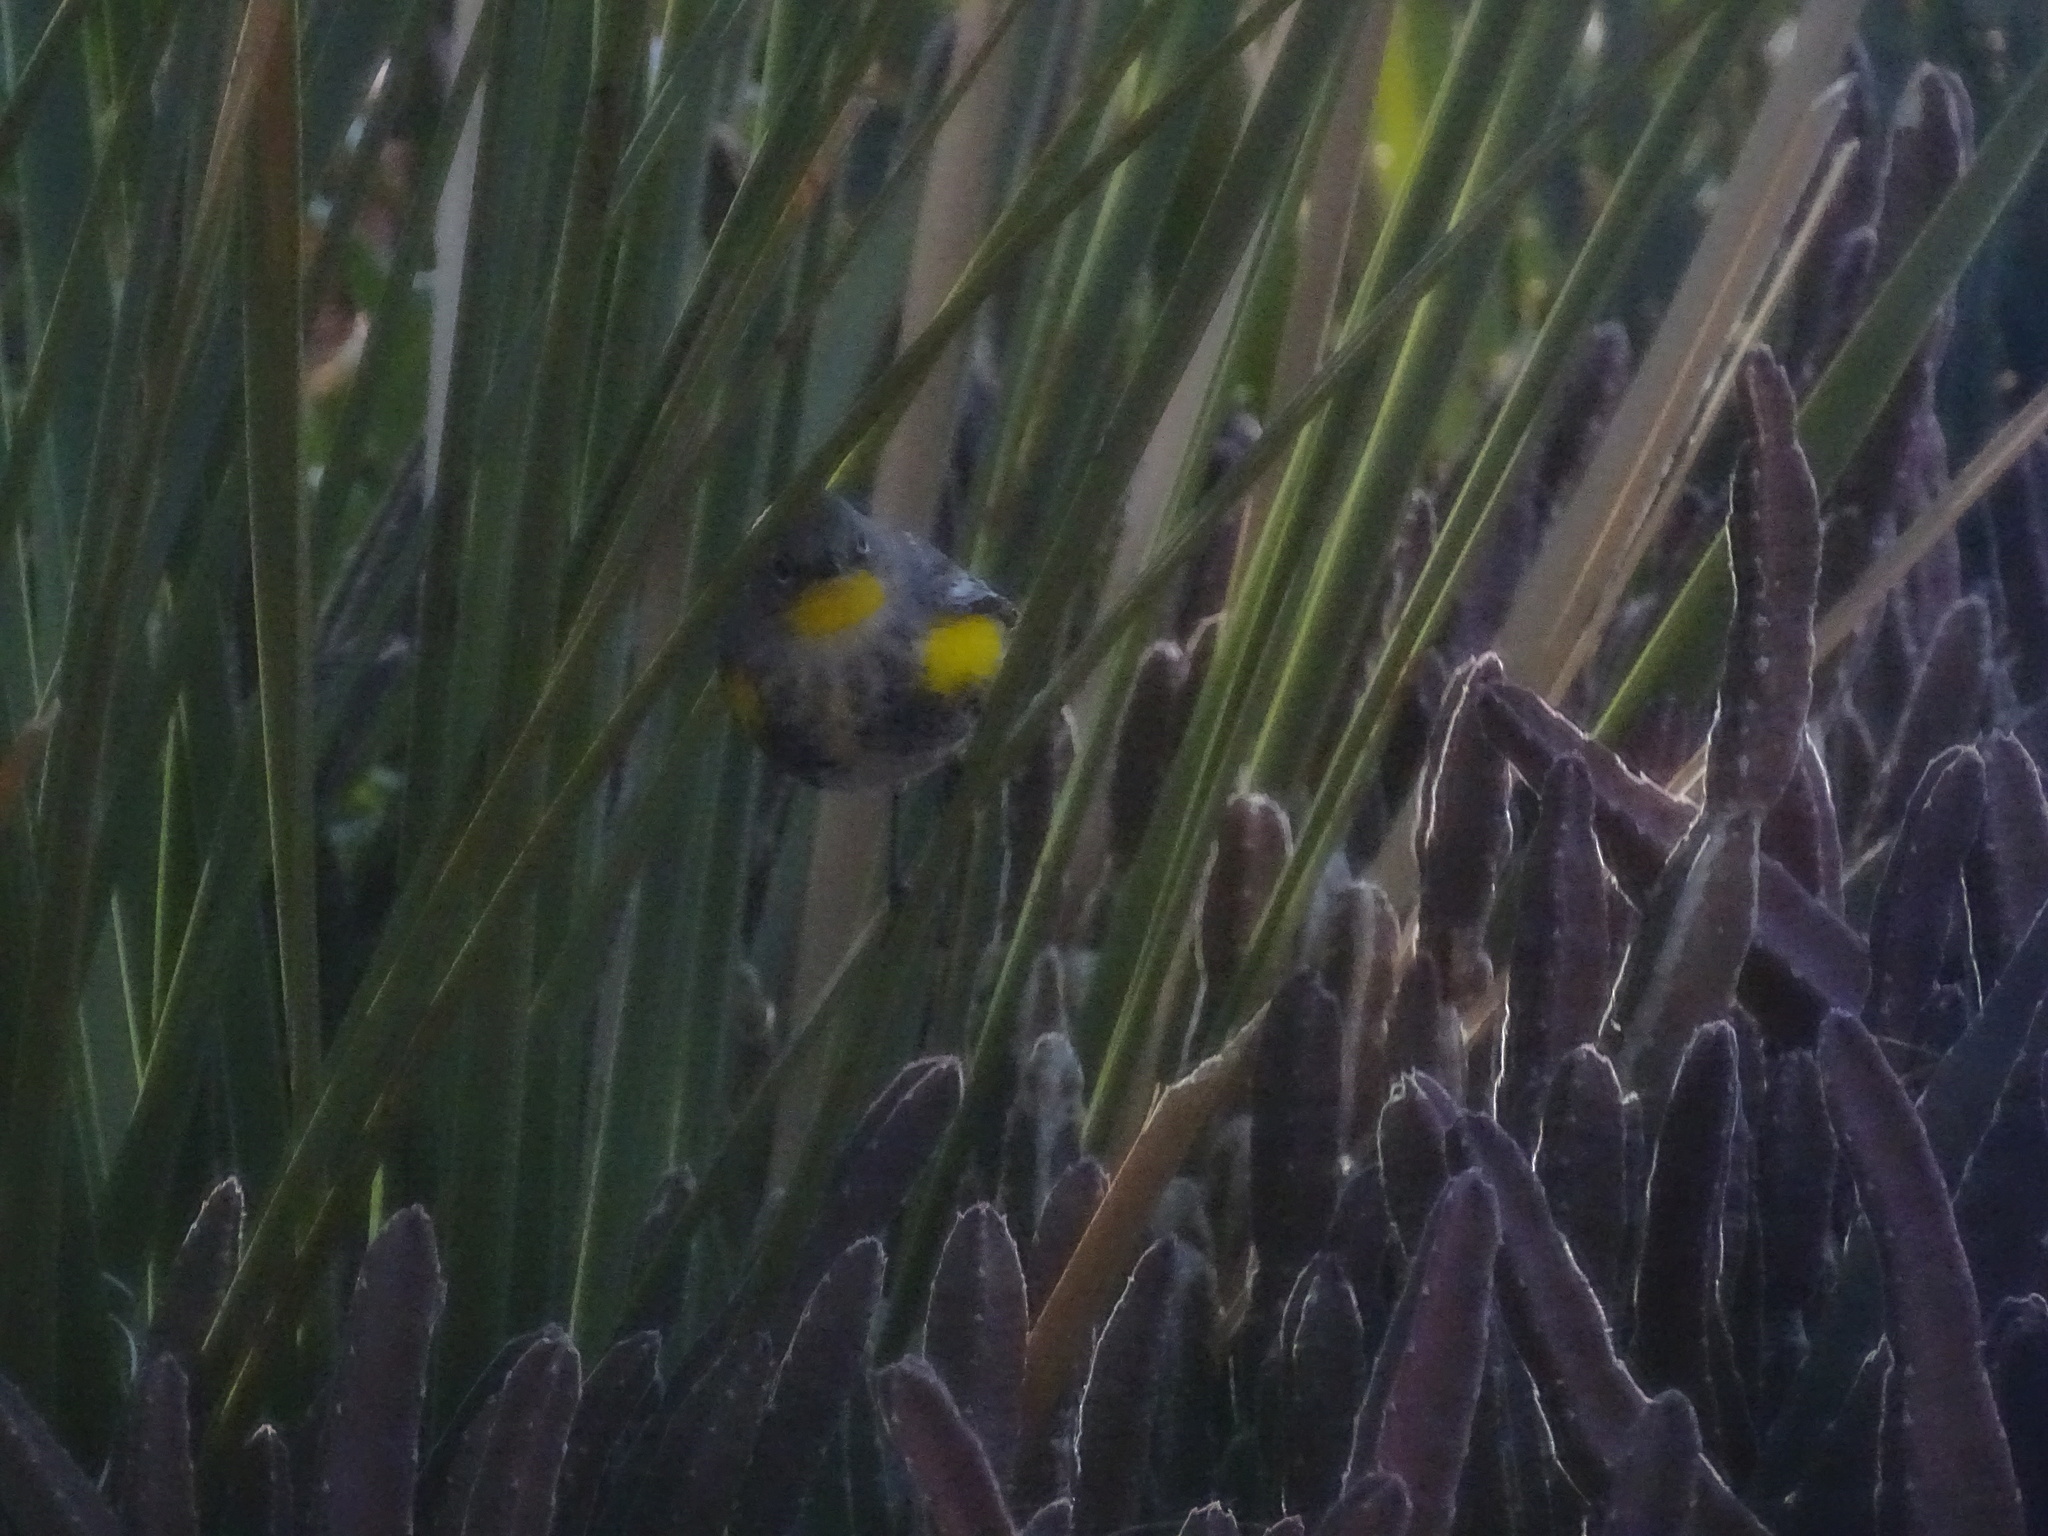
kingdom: Animalia
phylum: Chordata
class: Aves
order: Passeriformes
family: Parulidae
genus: Setophaga
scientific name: Setophaga coronata
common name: Myrtle warbler
